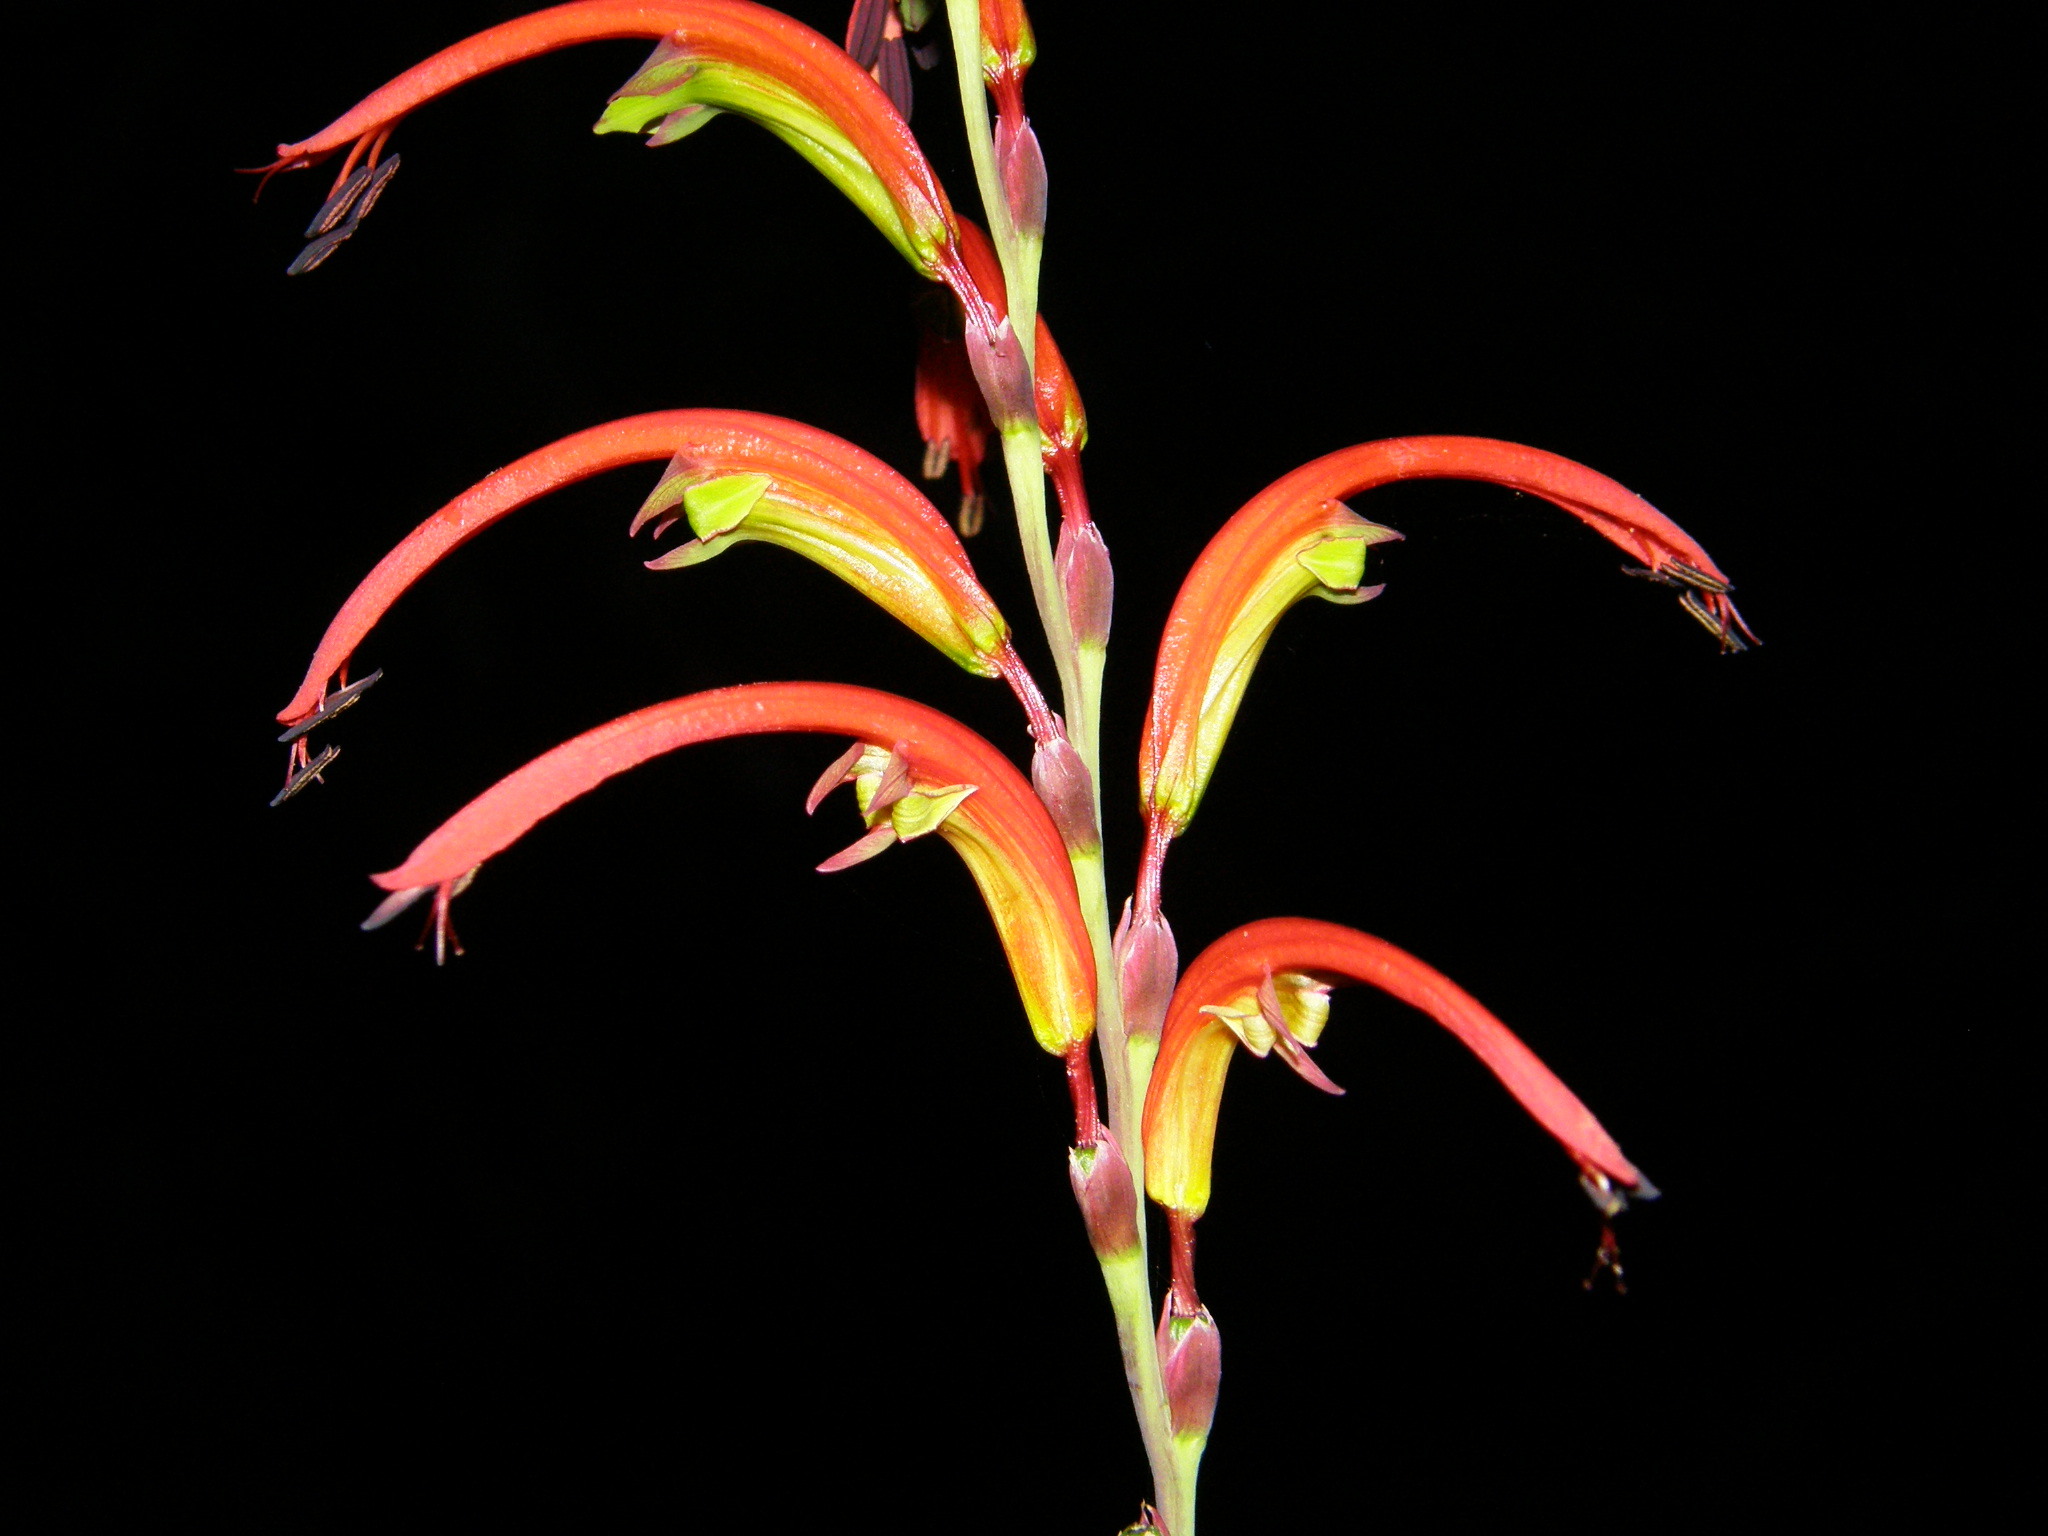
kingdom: Plantae
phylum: Tracheophyta
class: Liliopsida
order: Asparagales
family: Iridaceae
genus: Chasmanthe
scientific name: Chasmanthe bicolor
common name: Bicolor cobra lily
